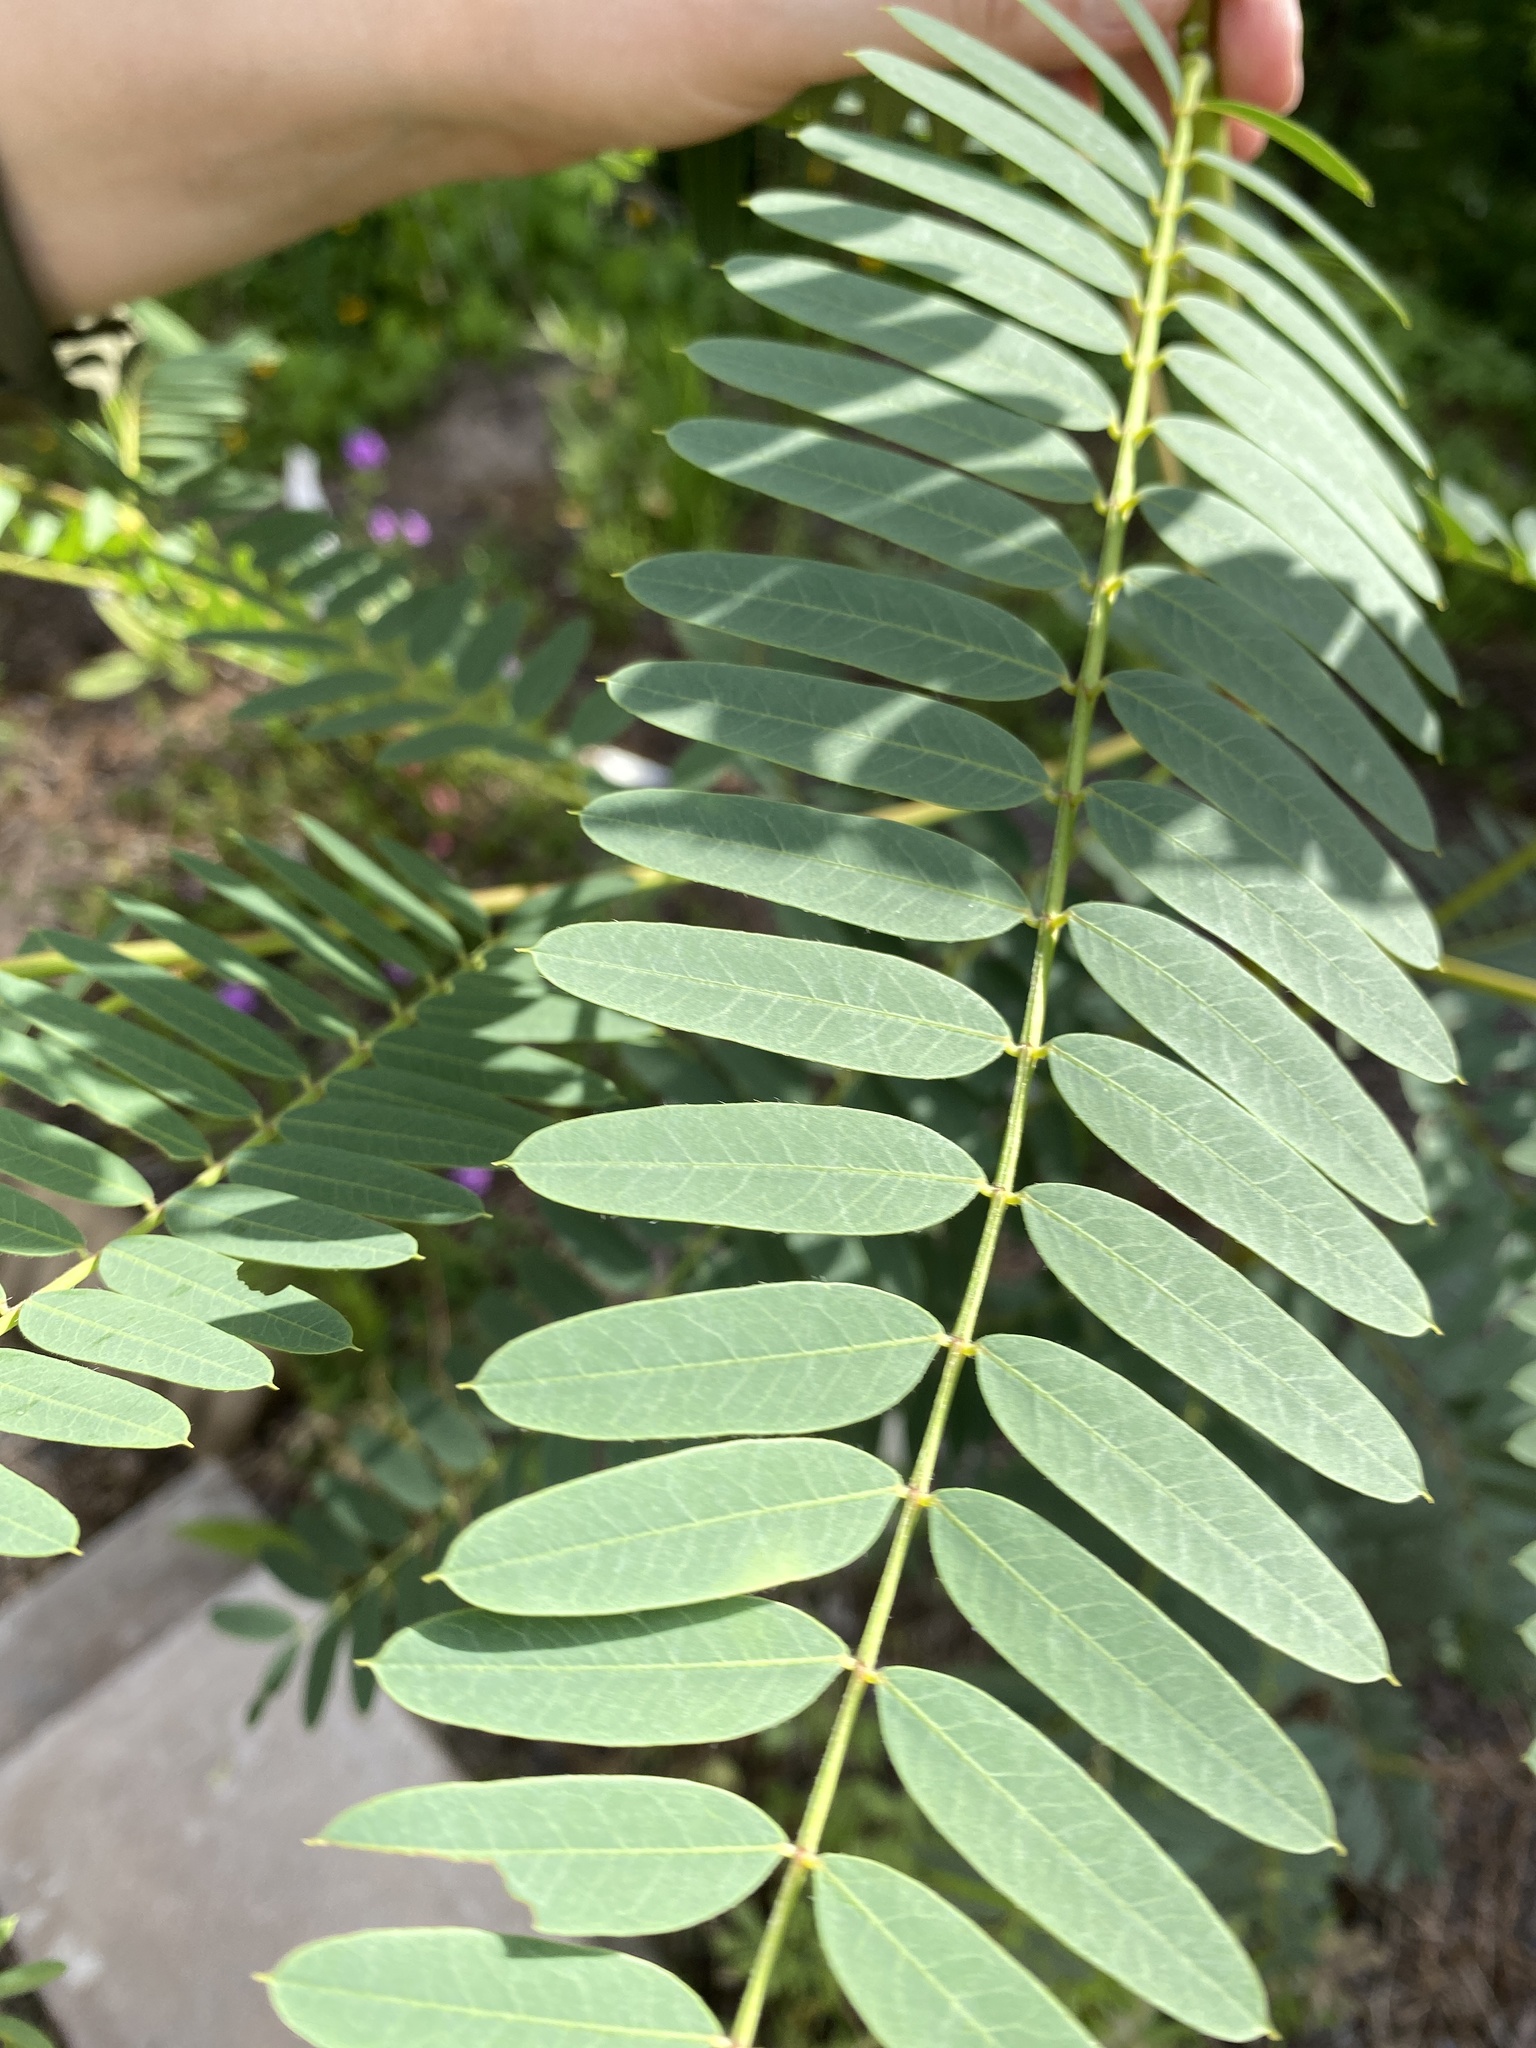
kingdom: Plantae
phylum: Tracheophyta
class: Magnoliopsida
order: Fabales
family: Fabaceae
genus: Sesbania
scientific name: Sesbania drummondii
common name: Poison-bean
